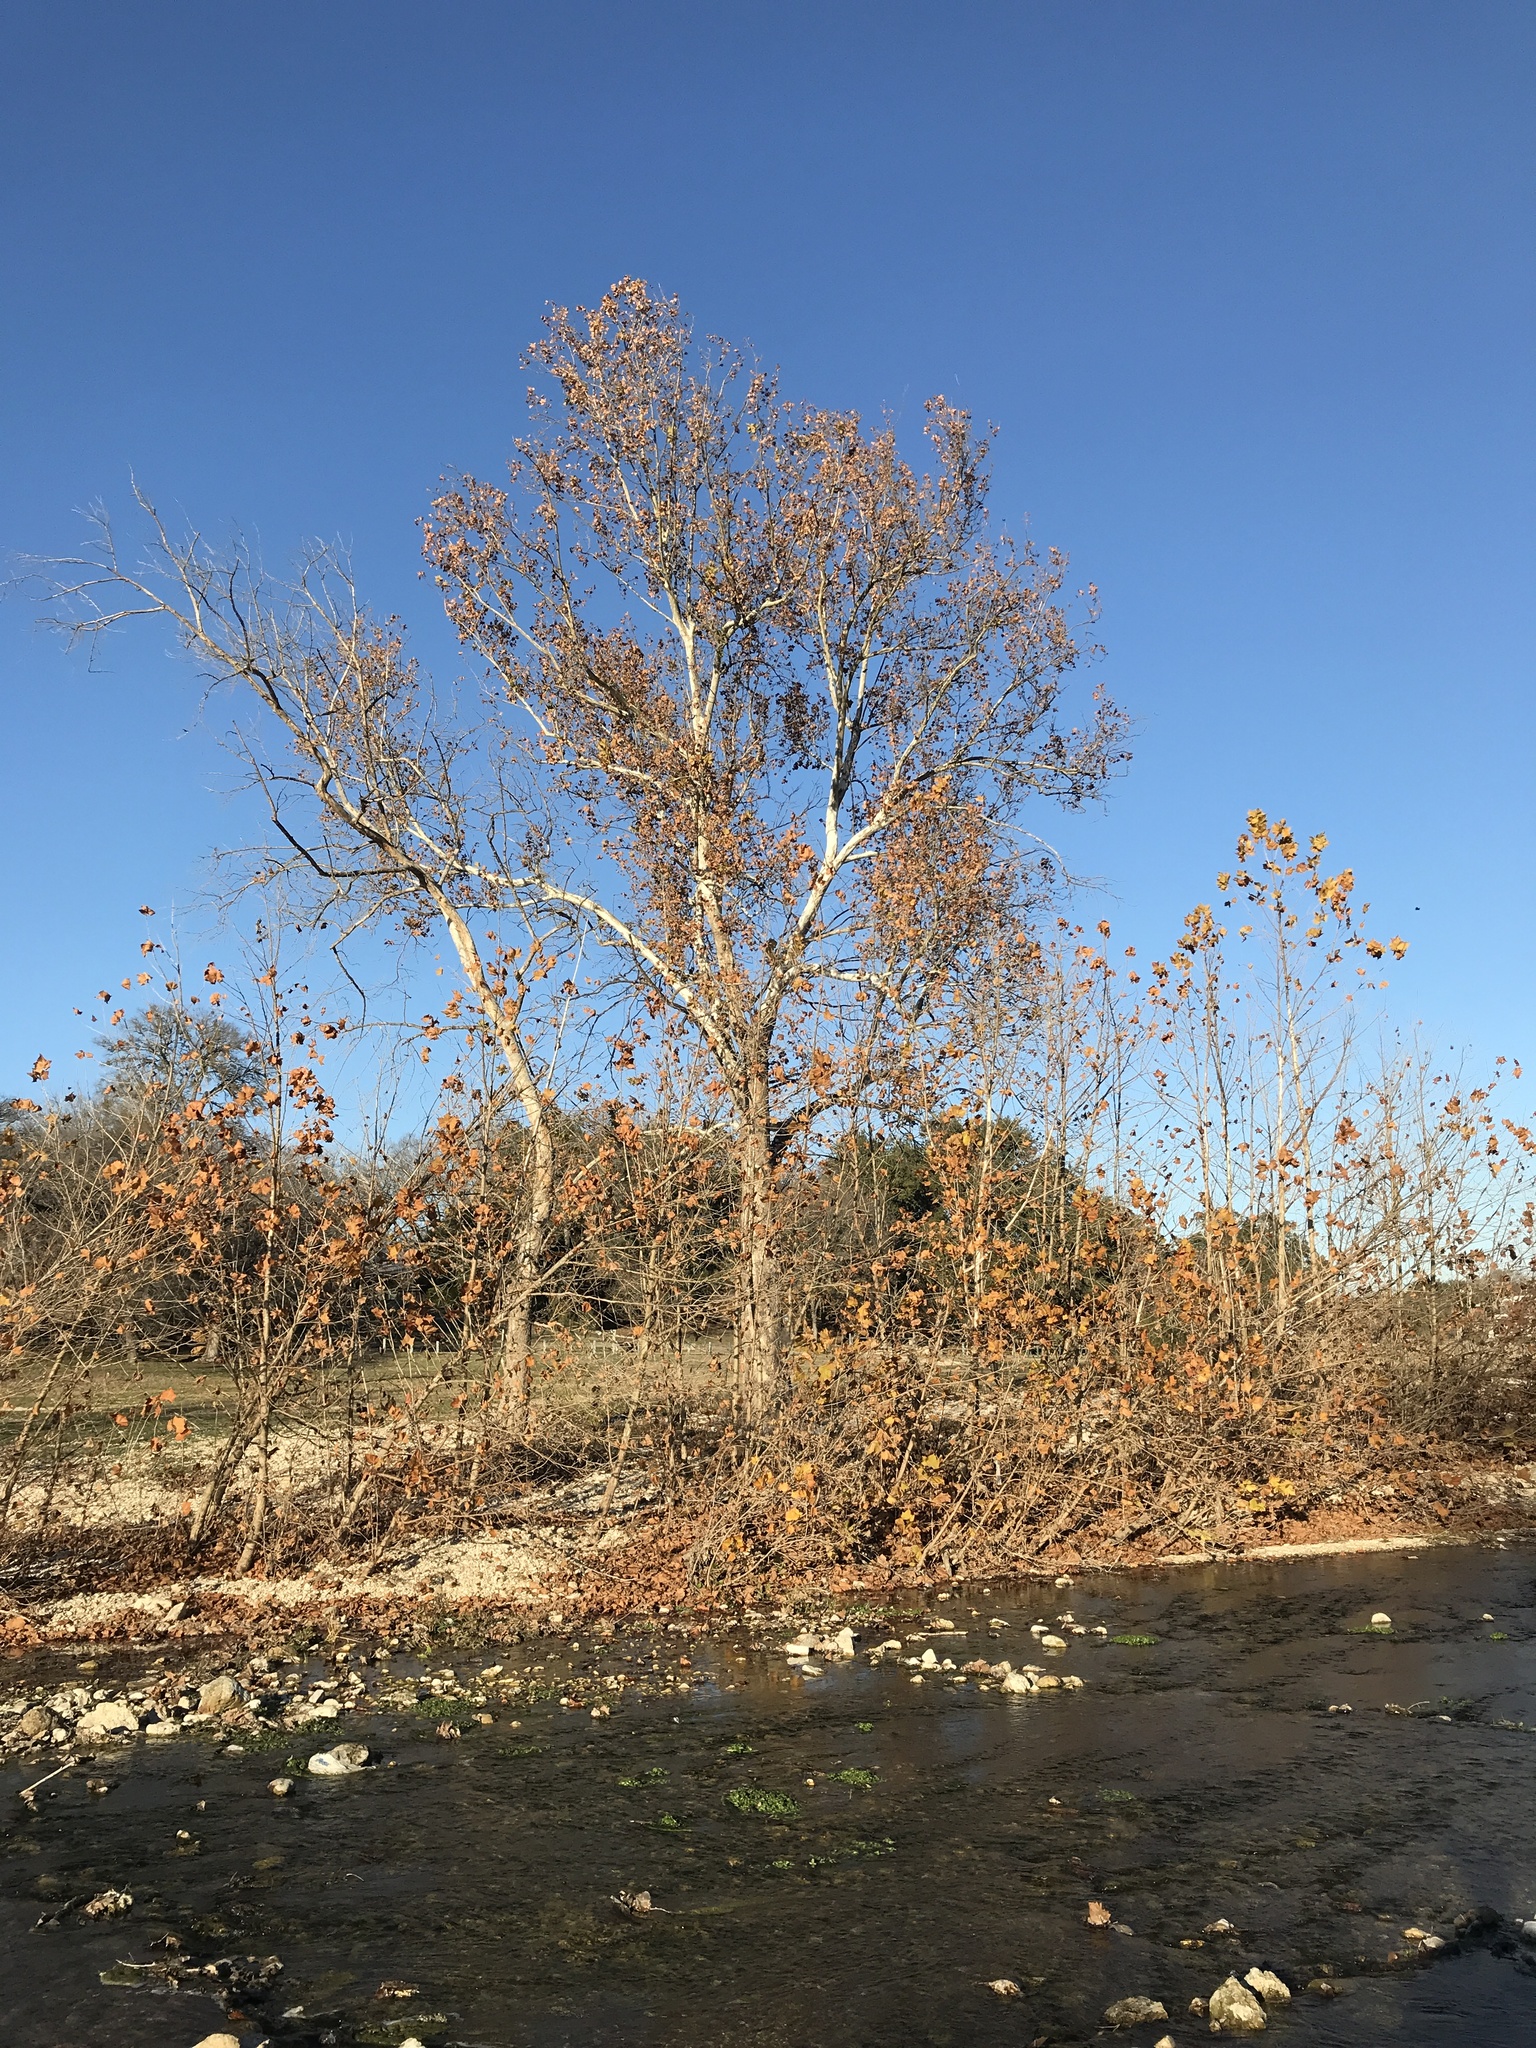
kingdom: Plantae
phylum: Tracheophyta
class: Magnoliopsida
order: Proteales
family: Platanaceae
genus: Platanus
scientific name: Platanus occidentalis
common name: American sycamore
